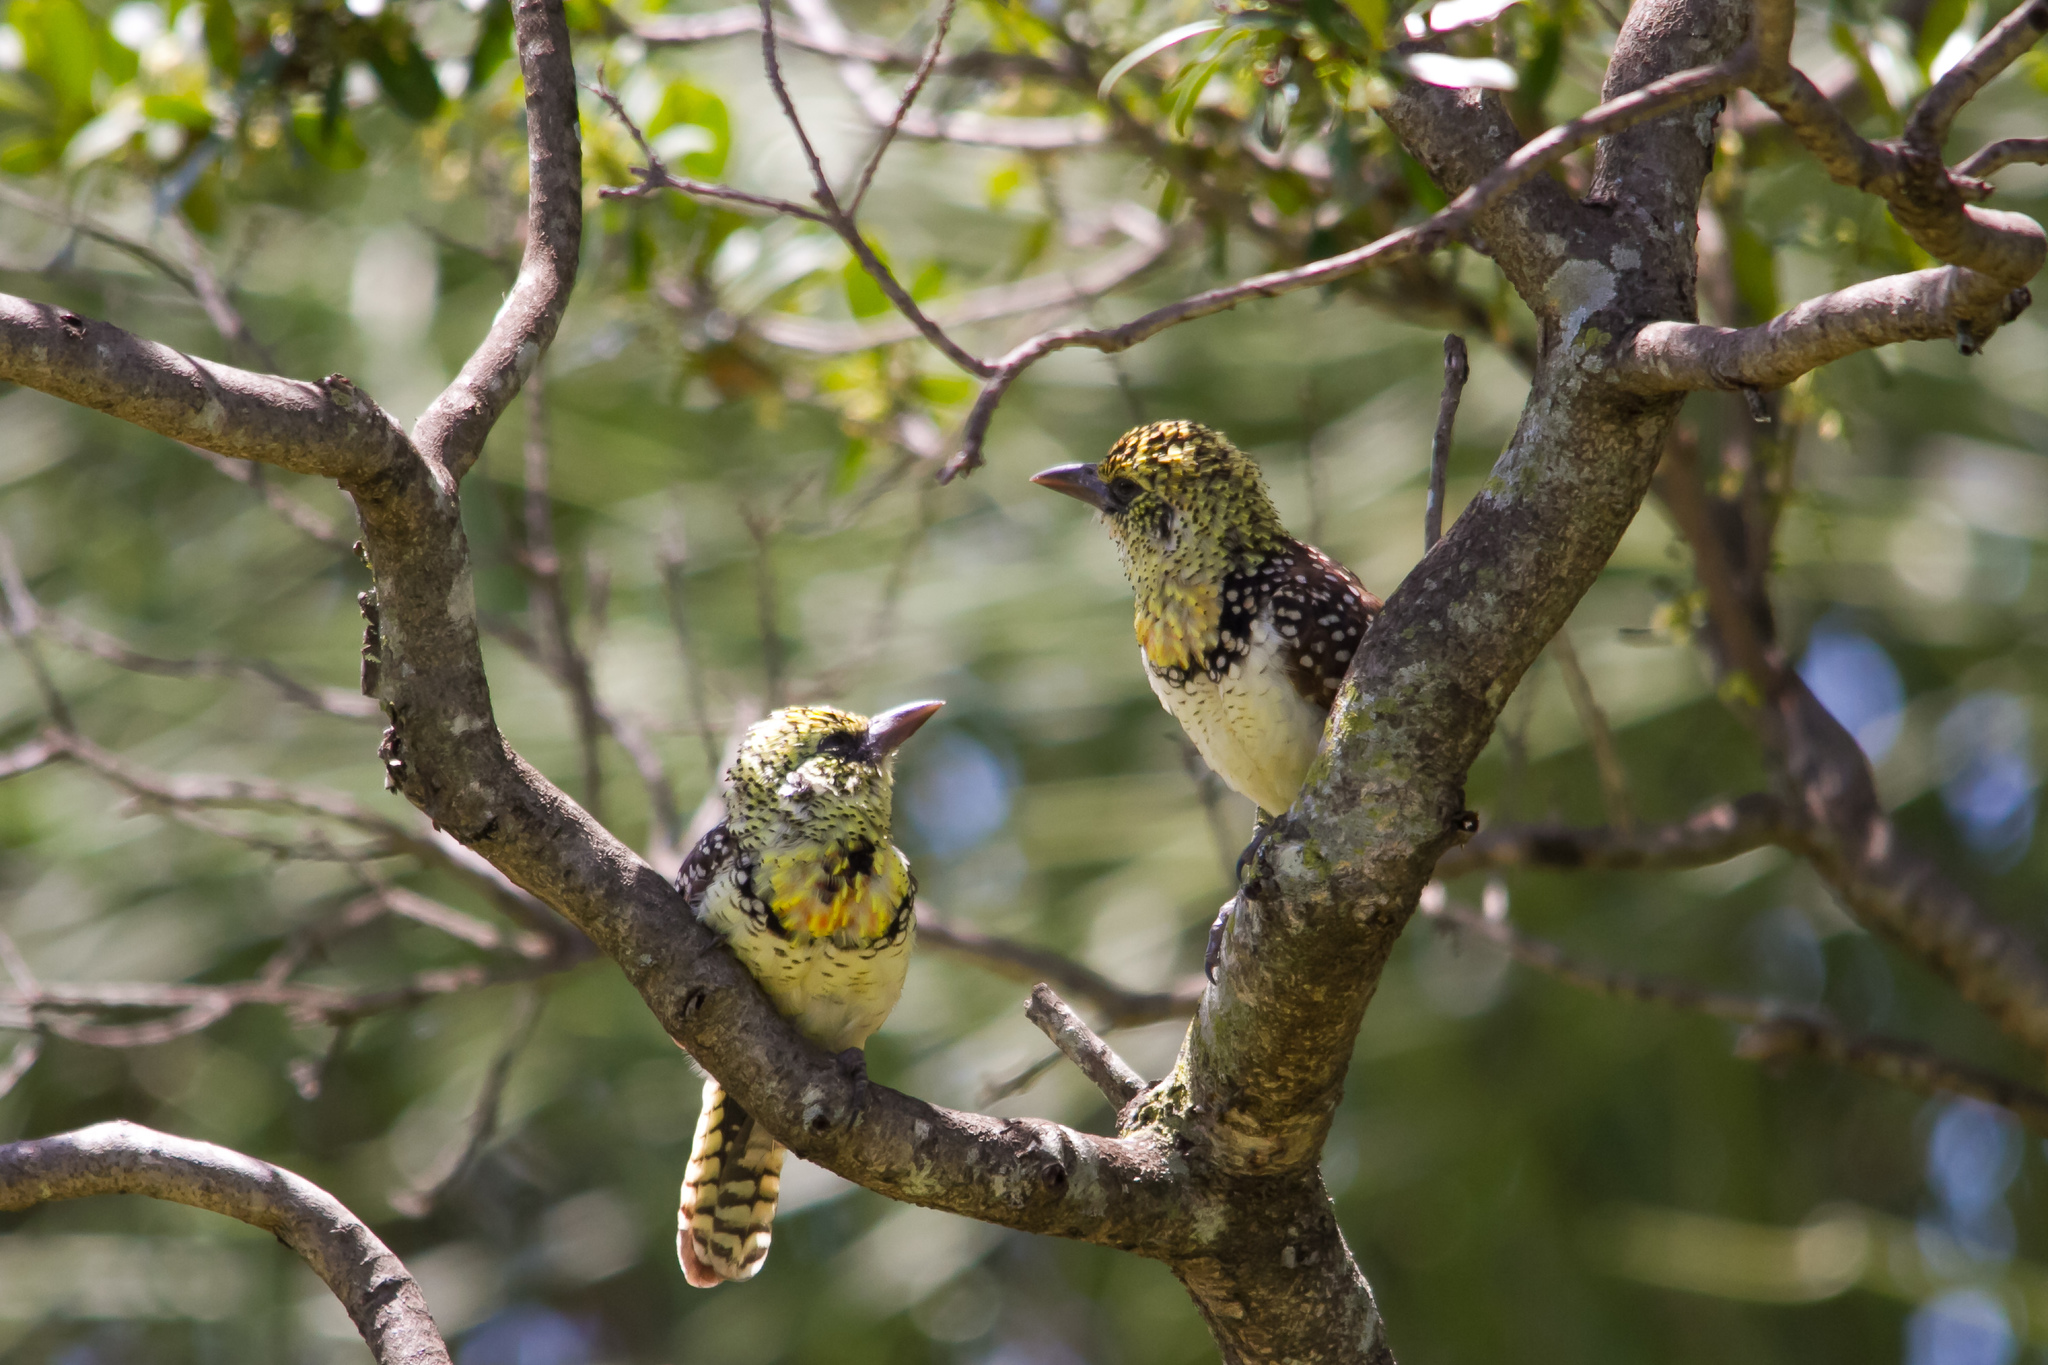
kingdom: Animalia
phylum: Chordata
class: Aves
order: Piciformes
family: Lybiidae
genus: Trachyphonus
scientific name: Trachyphonus darnaudii
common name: D'arnaud's barbet
